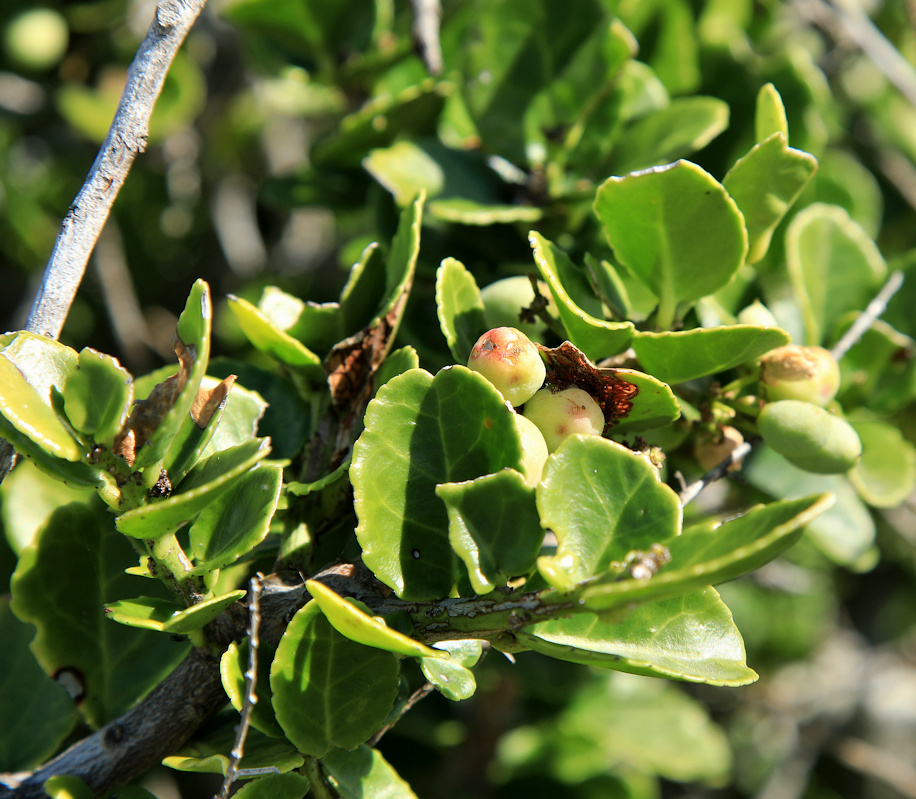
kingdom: Plantae
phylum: Tracheophyta
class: Magnoliopsida
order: Celastrales
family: Celastraceae
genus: Mystroxylon
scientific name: Mystroxylon aethiopicum
